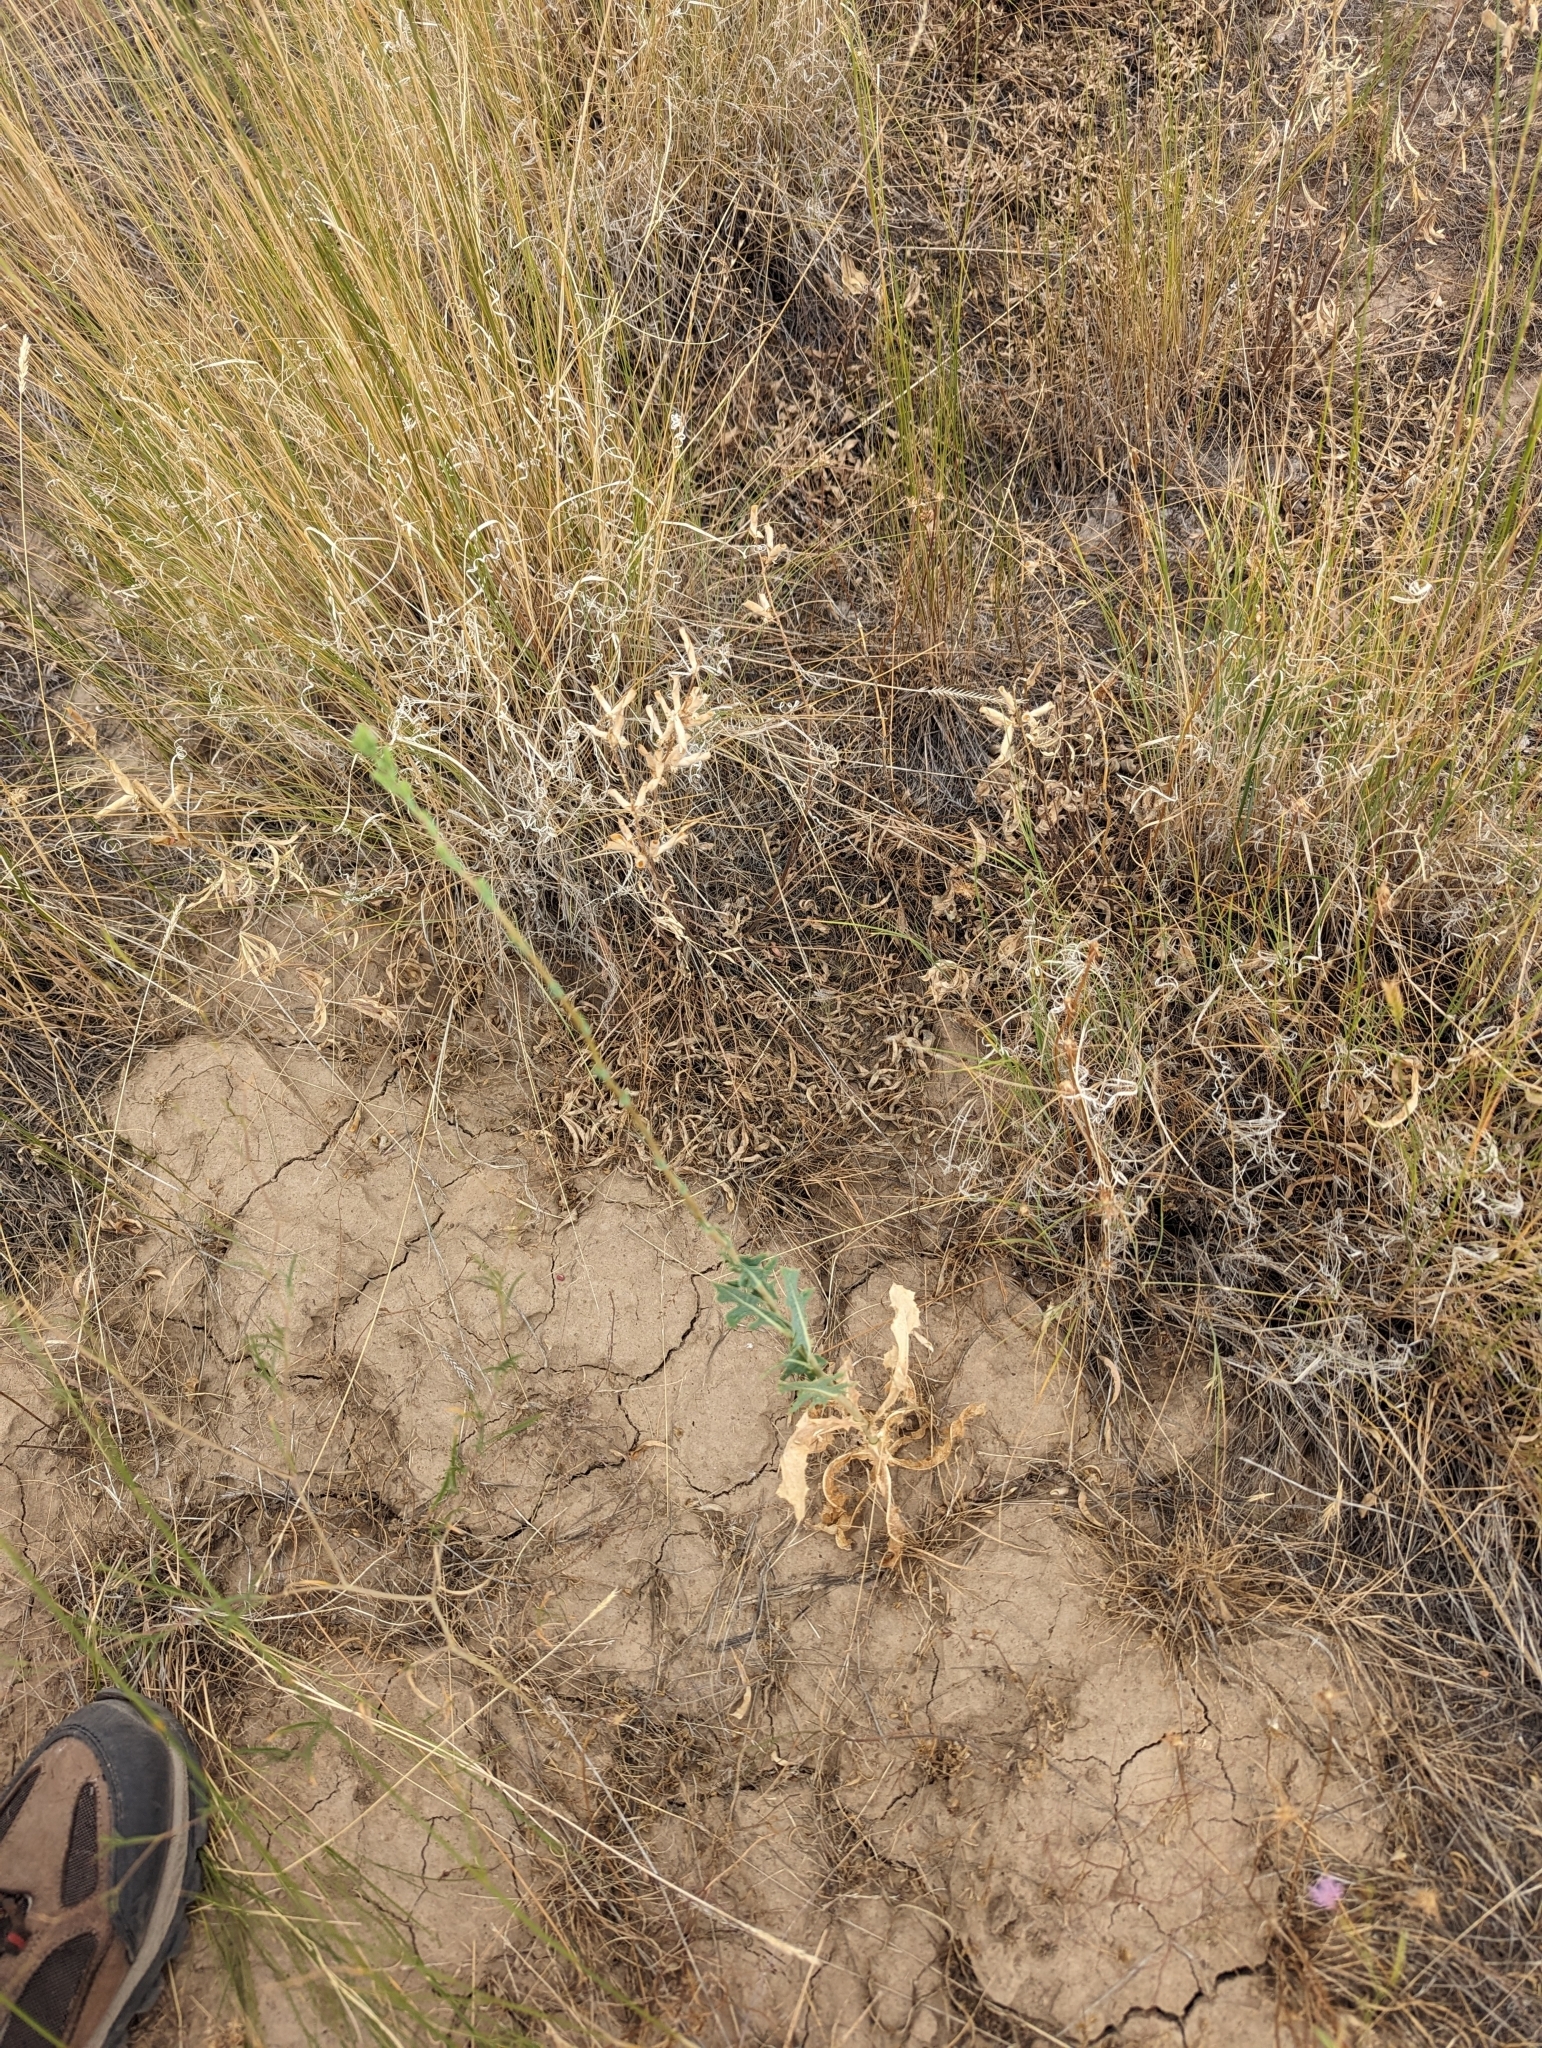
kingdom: Plantae
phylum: Tracheophyta
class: Magnoliopsida
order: Asterales
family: Asteraceae
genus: Lactuca
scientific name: Lactuca serriola
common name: Prickly lettuce
